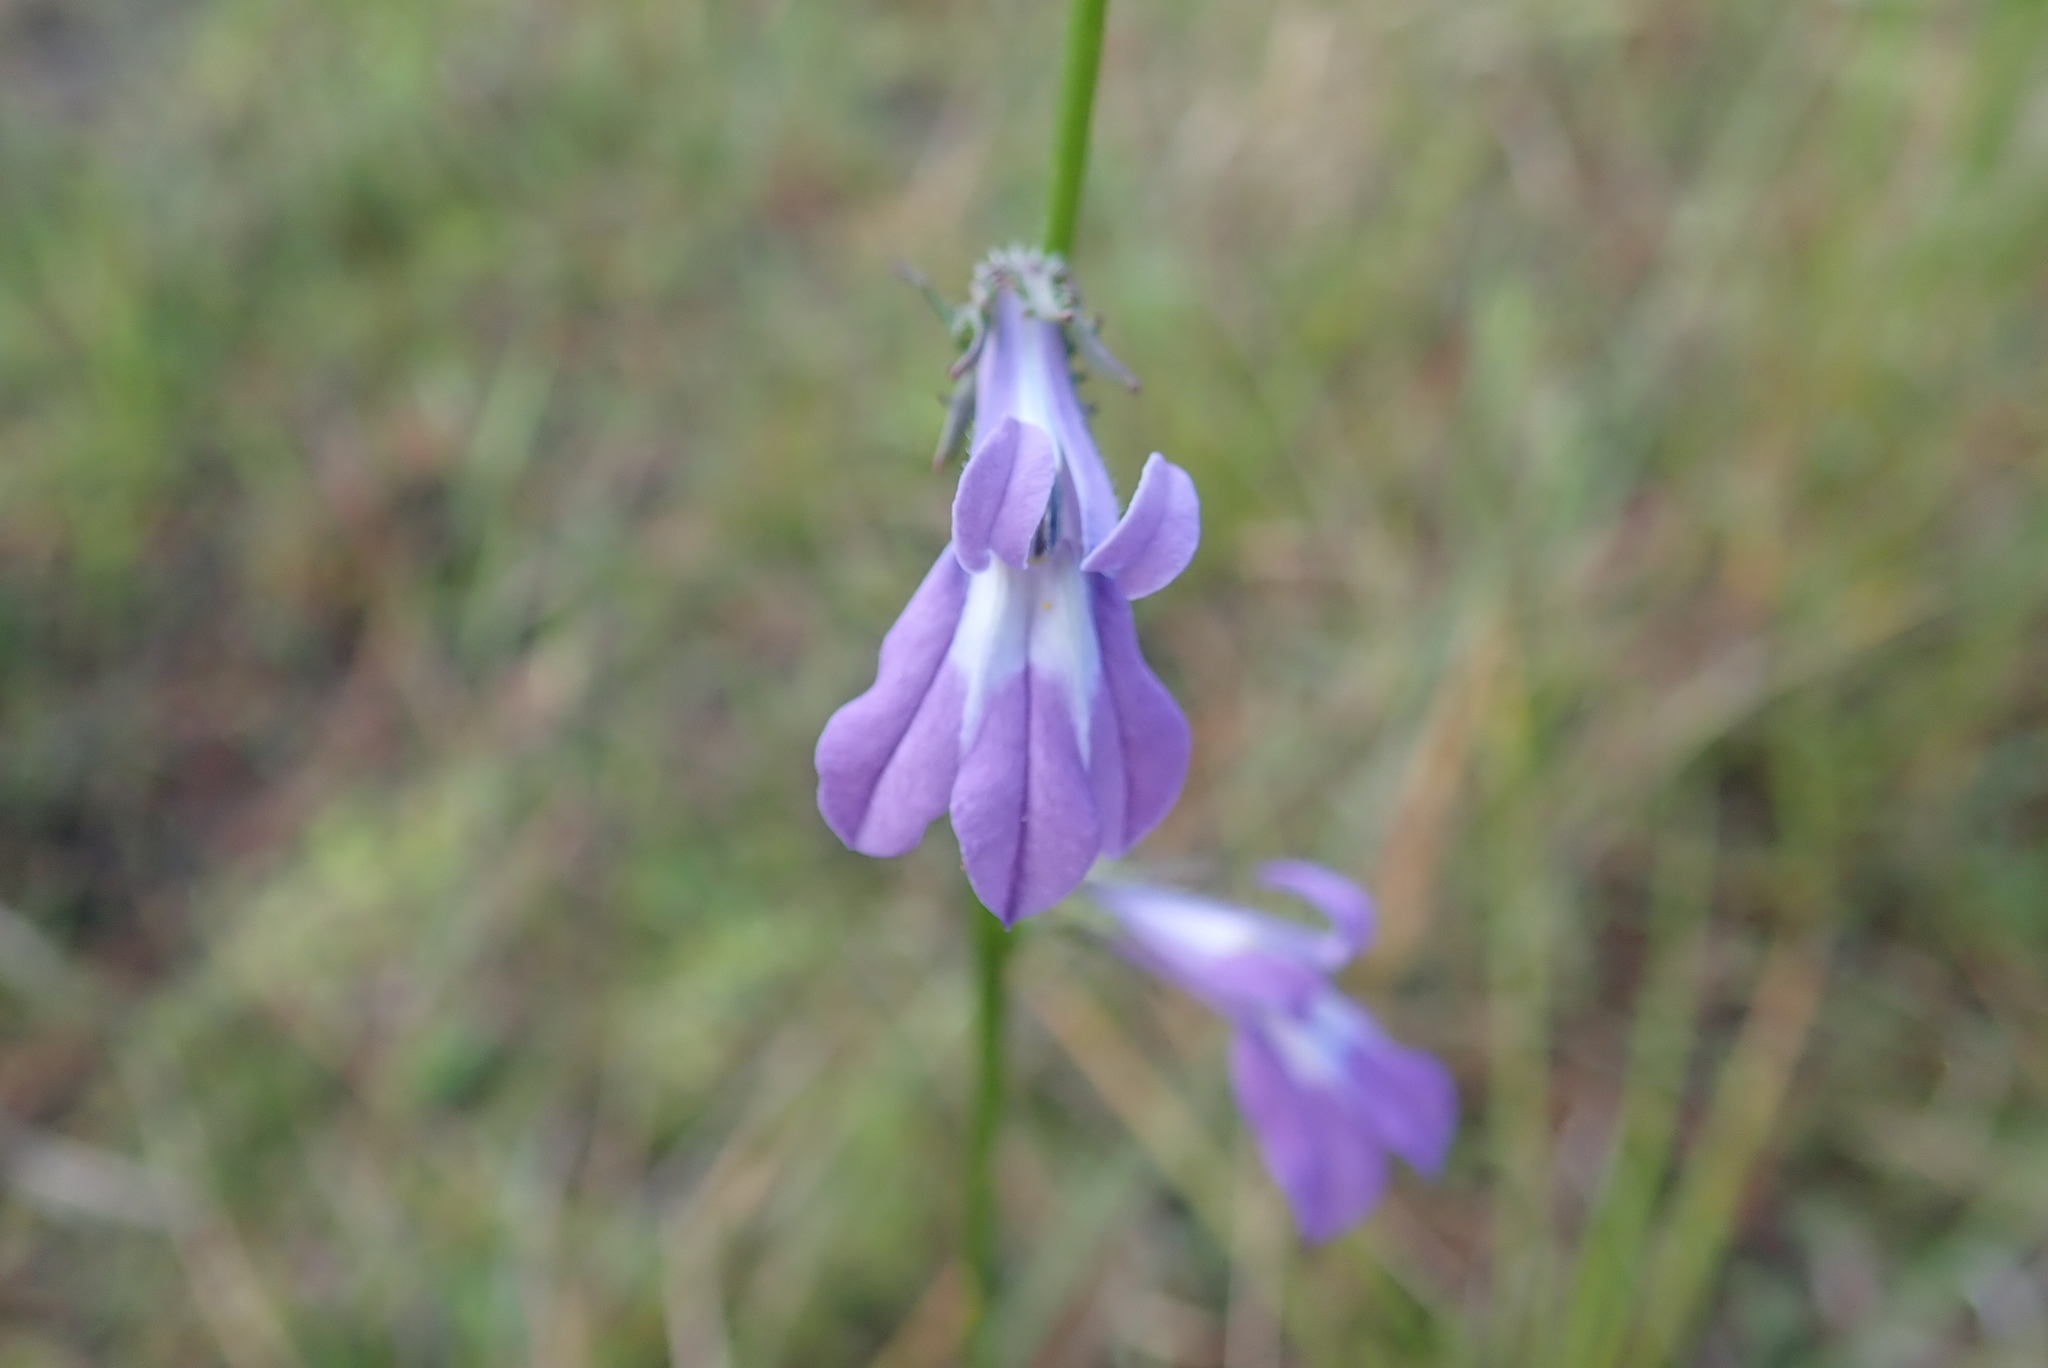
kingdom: Plantae
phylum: Tracheophyta
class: Magnoliopsida
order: Asterales
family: Campanulaceae
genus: Lobelia
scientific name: Lobelia glandulosa
